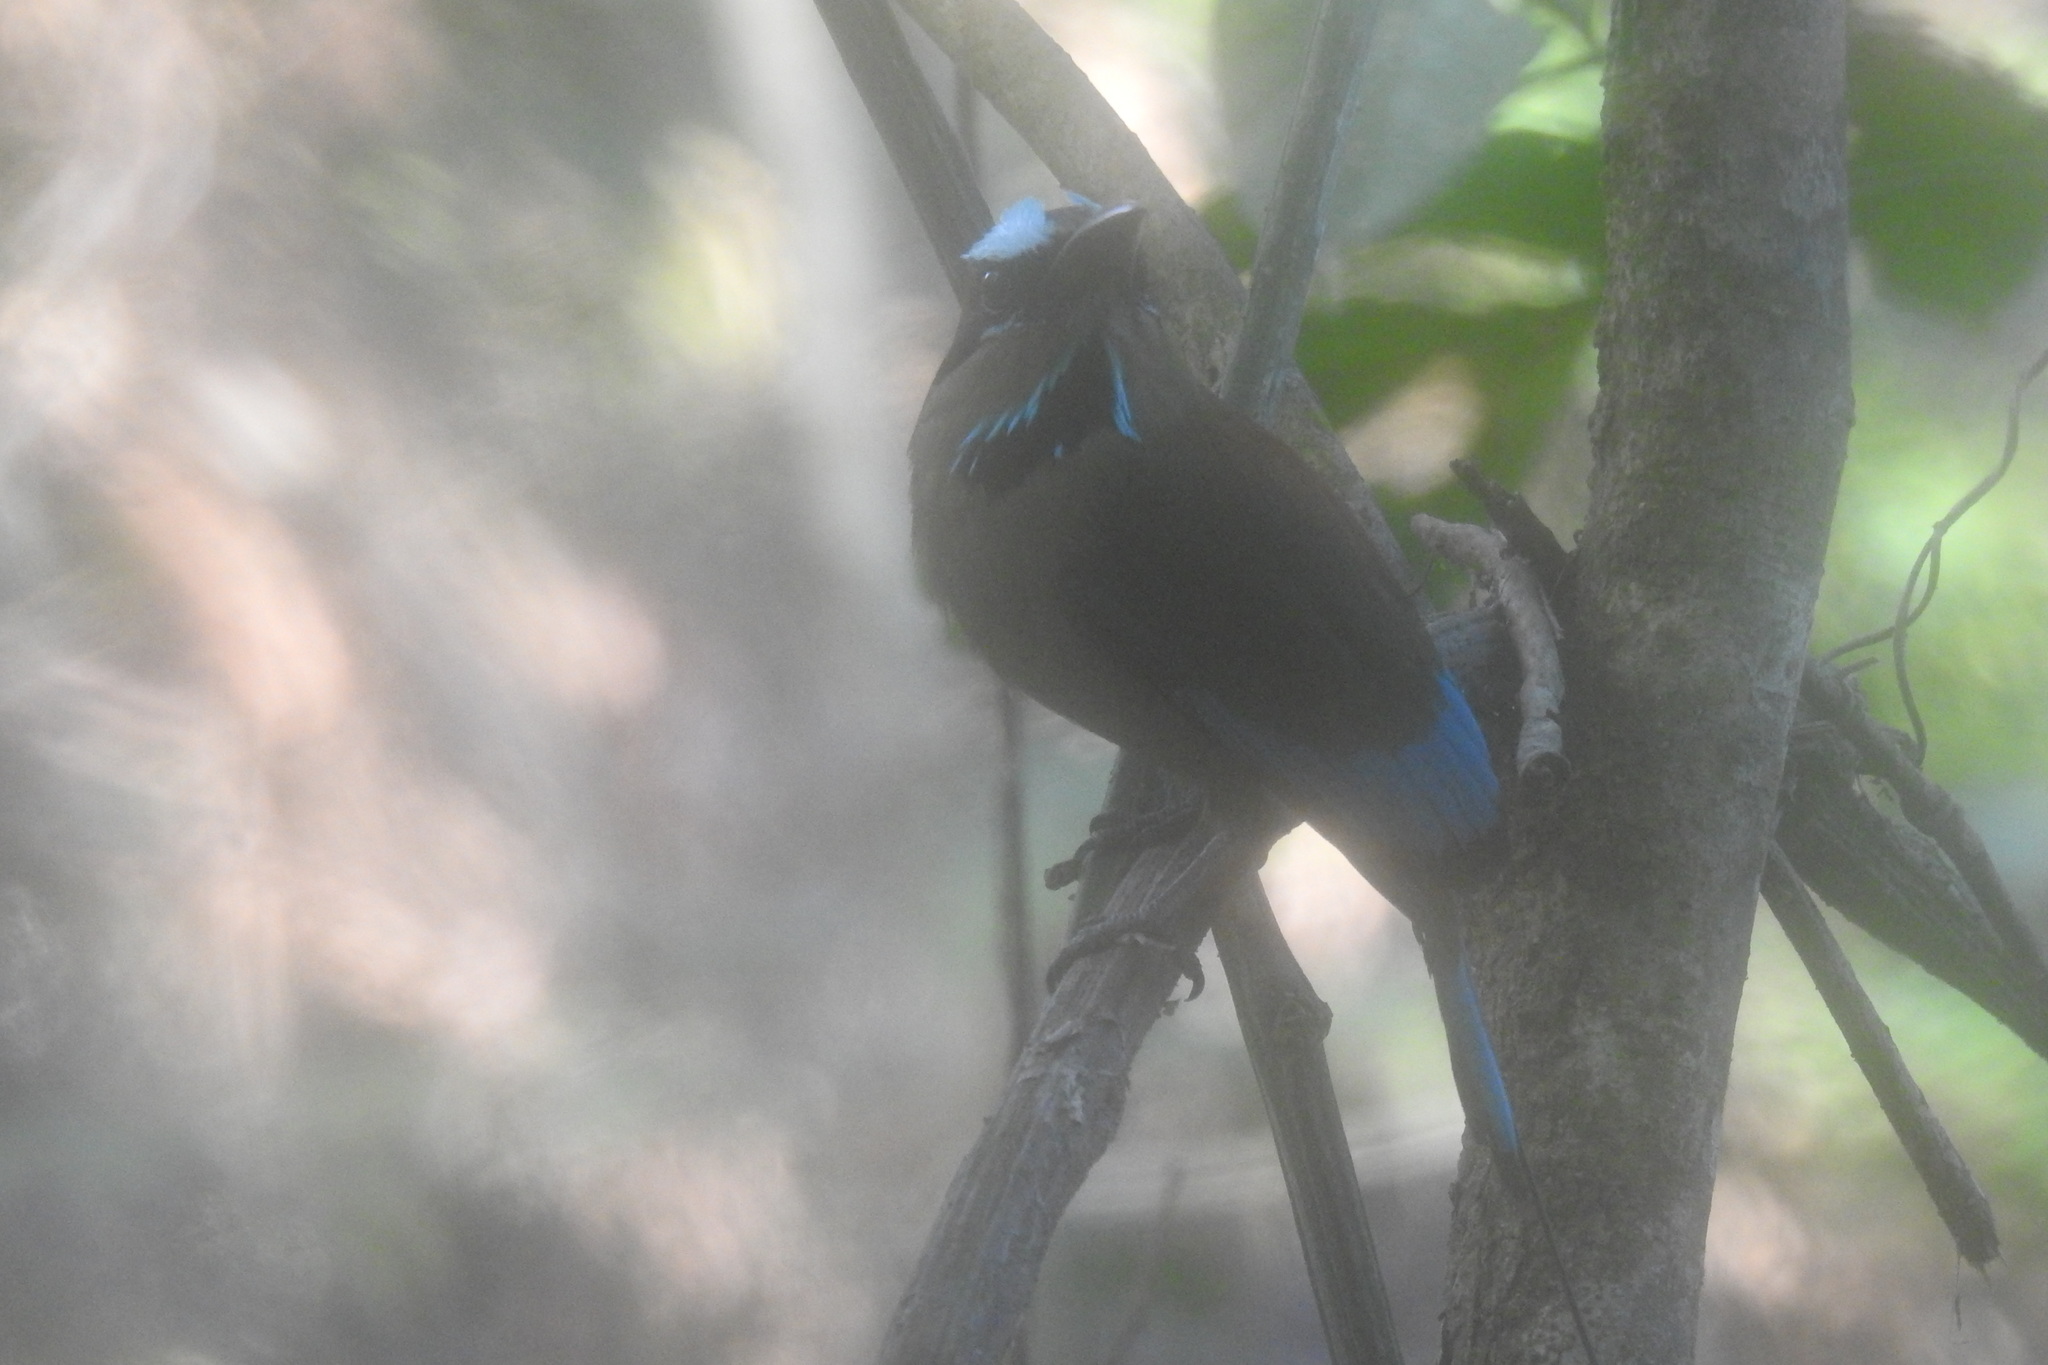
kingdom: Animalia
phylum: Chordata
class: Aves
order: Coraciiformes
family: Momotidae
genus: Eumomota
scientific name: Eumomota superciliosa
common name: Turquoise-browed motmot
